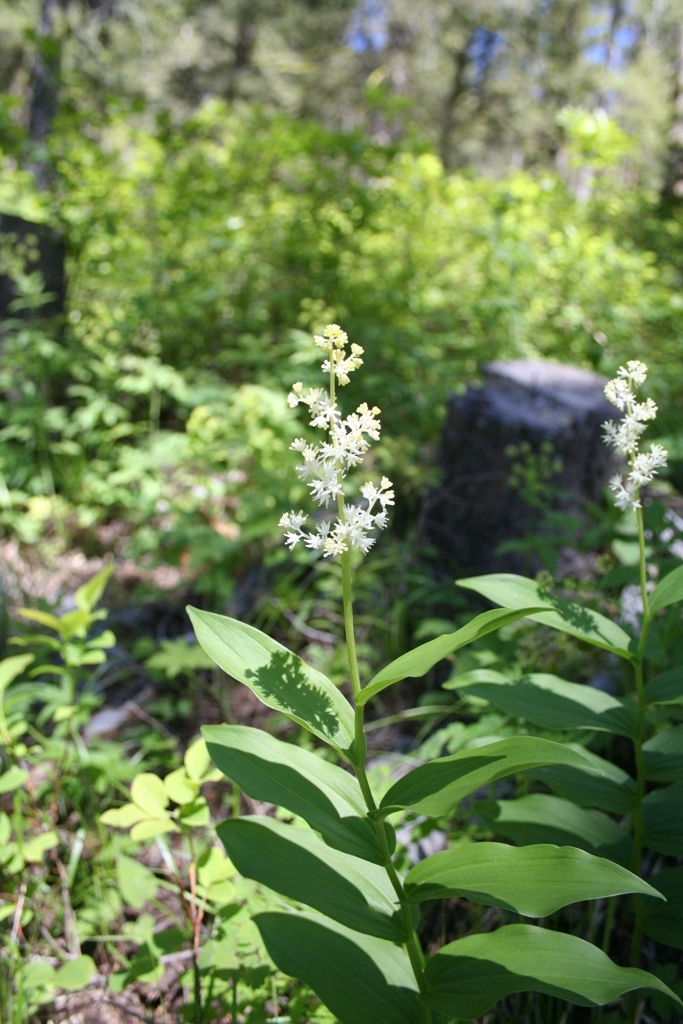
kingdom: Plantae
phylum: Tracheophyta
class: Liliopsida
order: Asparagales
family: Asparagaceae
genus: Maianthemum
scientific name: Maianthemum racemosum
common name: False spikenard
